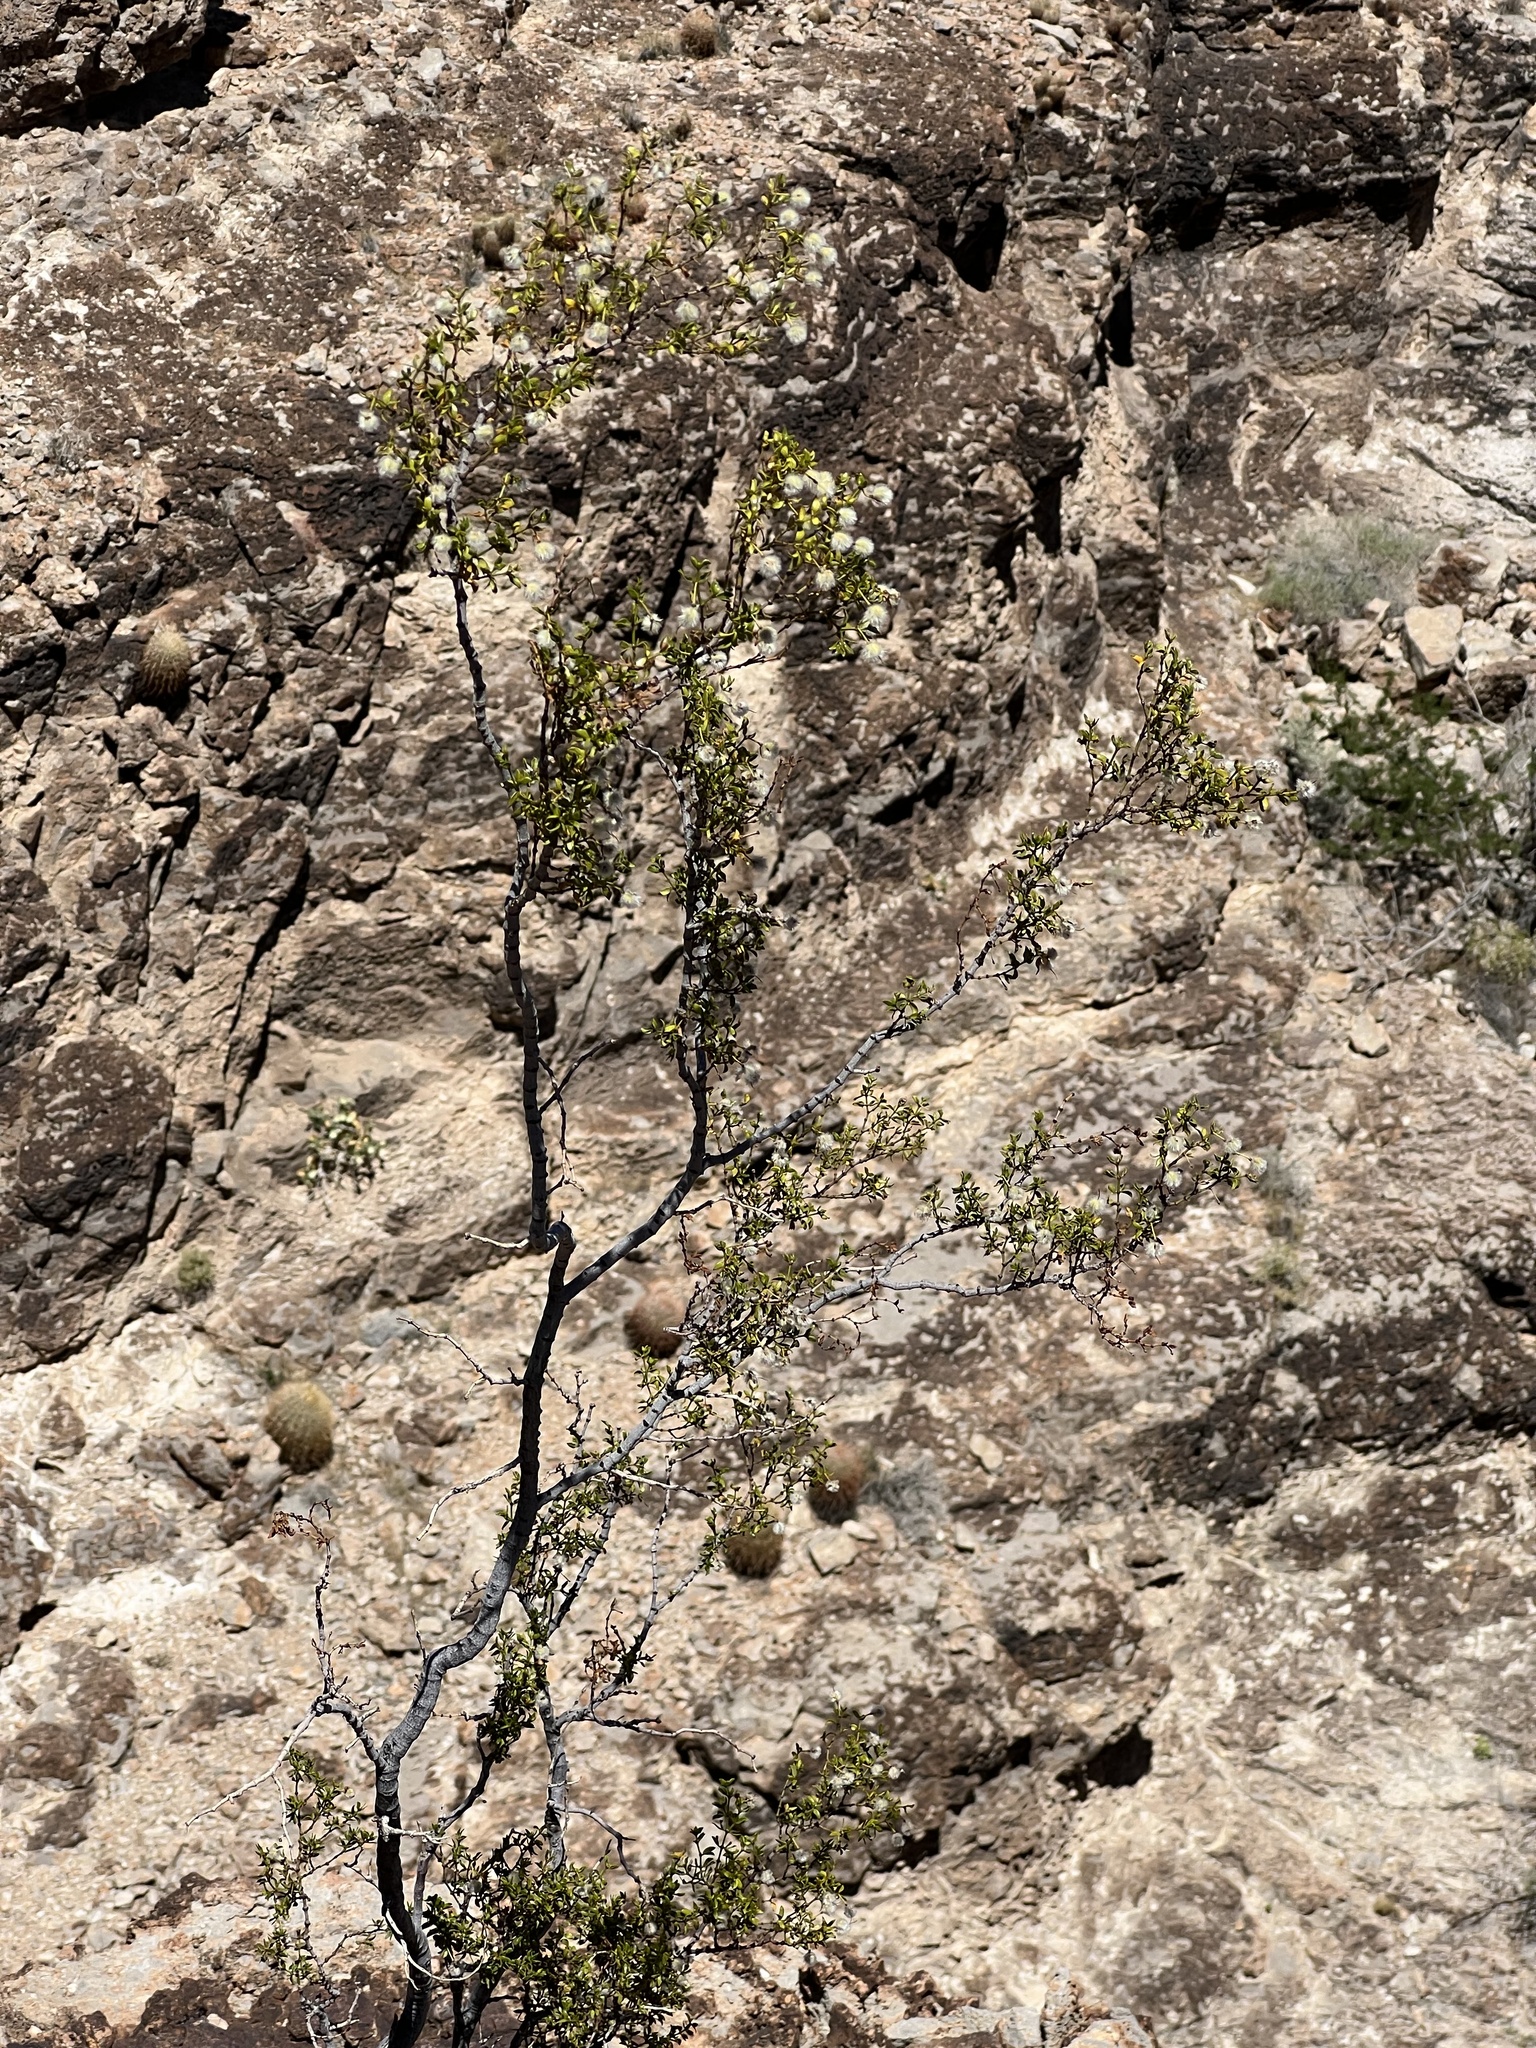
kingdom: Plantae
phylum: Tracheophyta
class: Magnoliopsida
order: Zygophyllales
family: Zygophyllaceae
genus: Larrea
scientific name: Larrea tridentata
